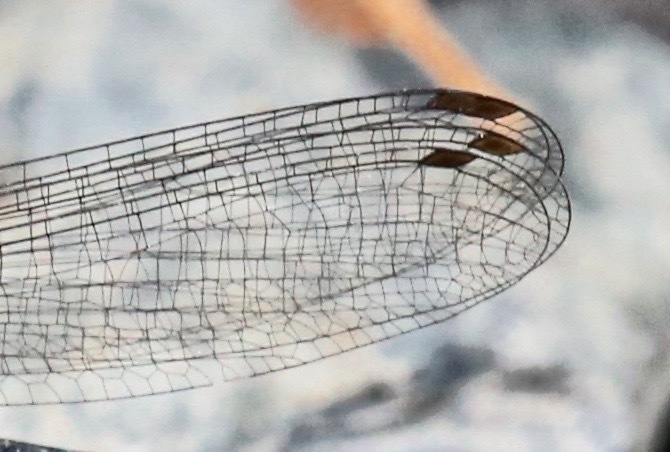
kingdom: Animalia
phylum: Arthropoda
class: Insecta
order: Odonata
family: Coenagrionidae
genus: Argia
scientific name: Argia apicalis
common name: Blue-fronted dancer
